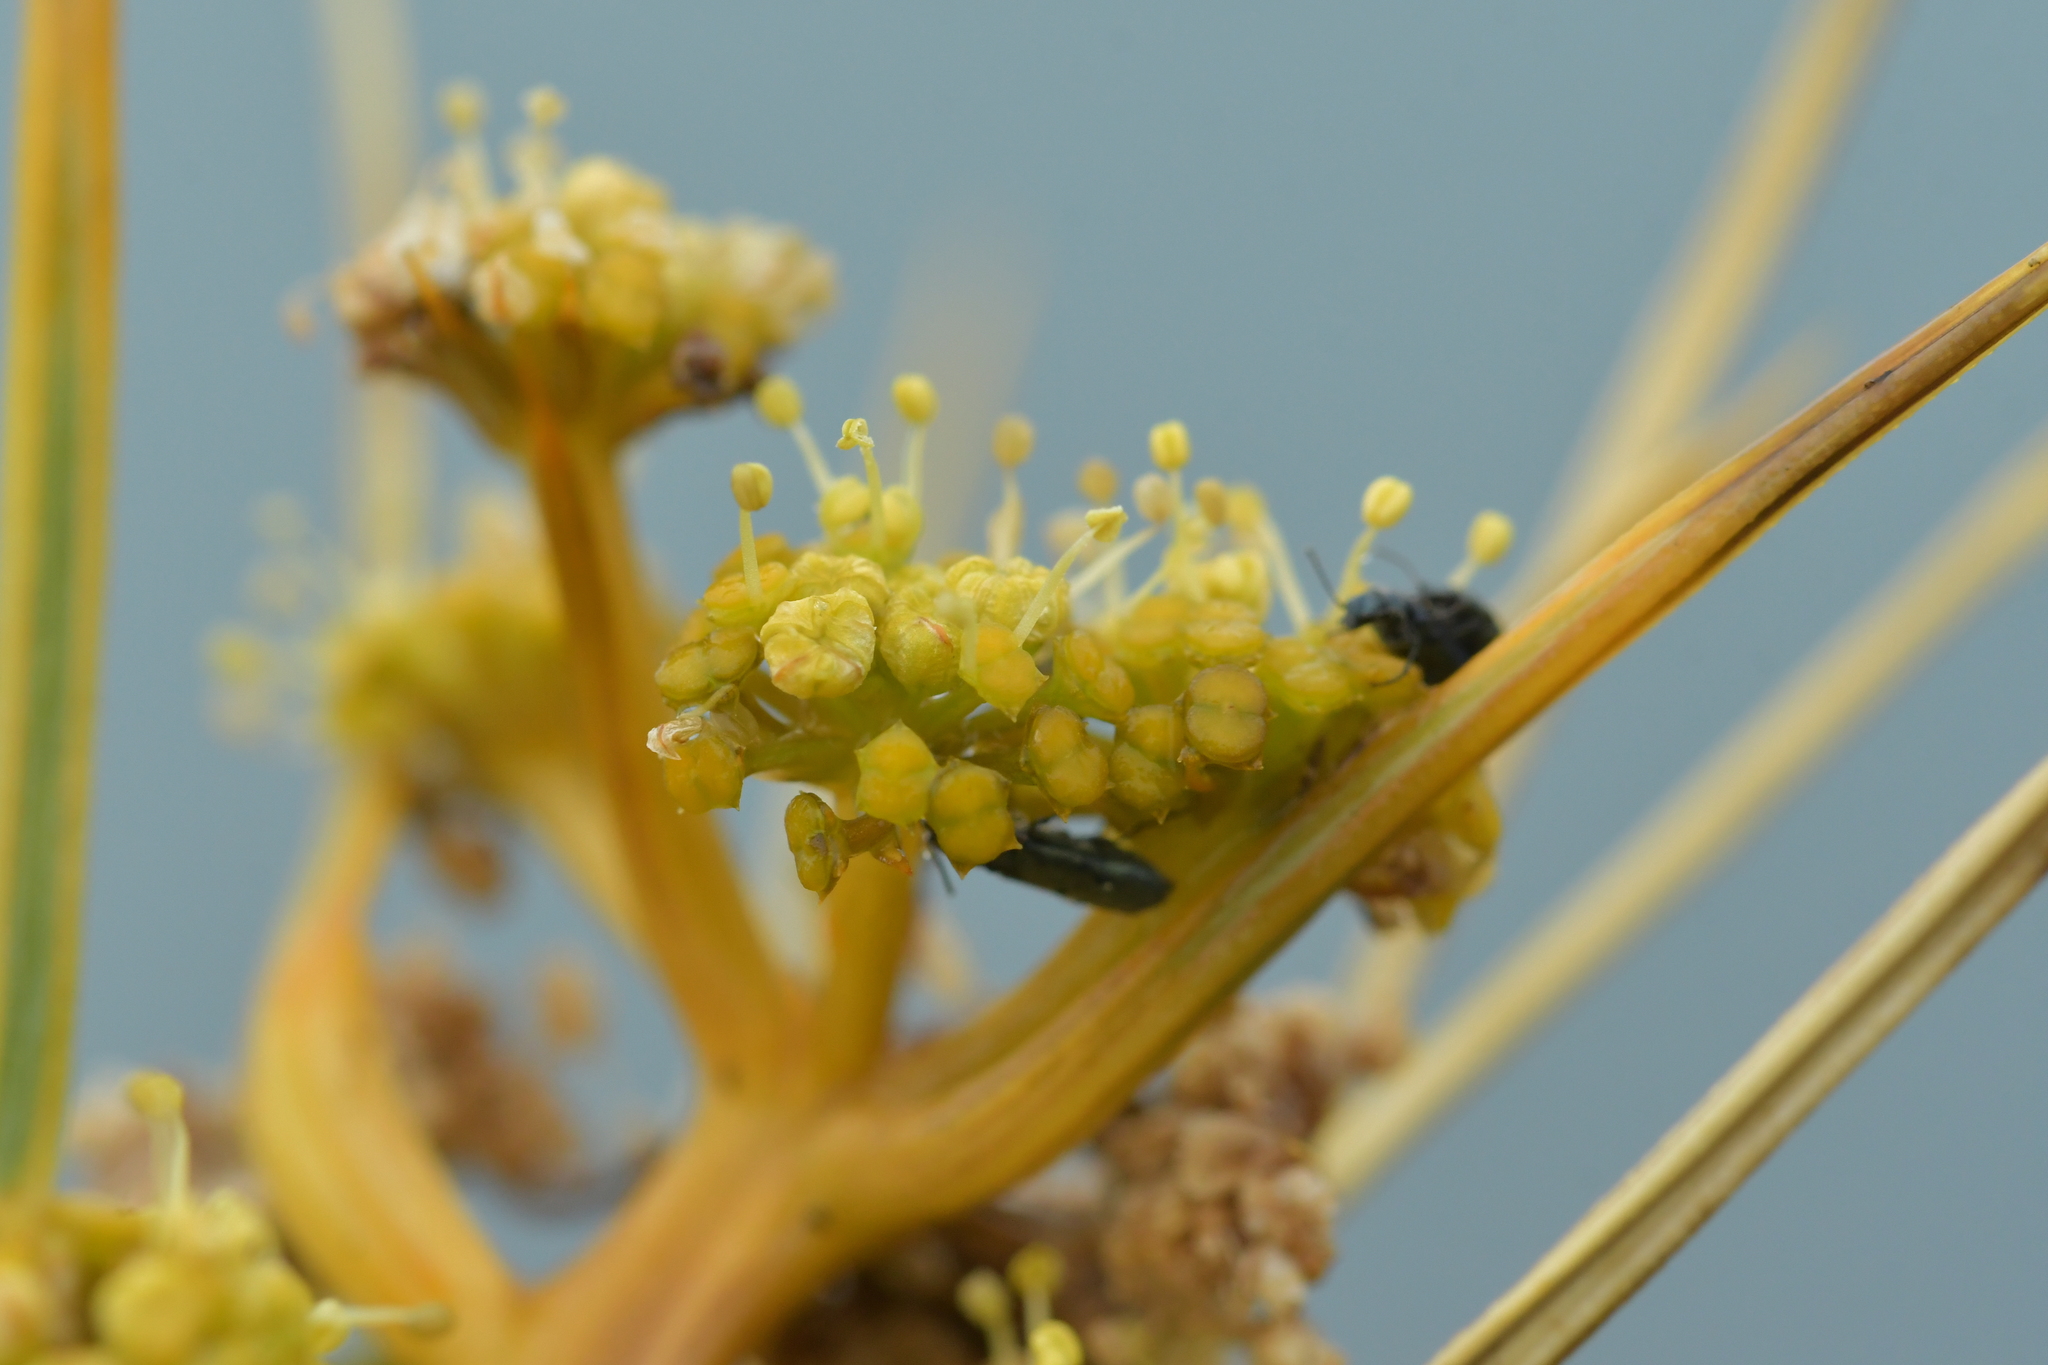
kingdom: Plantae
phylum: Tracheophyta
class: Magnoliopsida
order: Apiales
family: Apiaceae
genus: Aciphylla
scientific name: Aciphylla squarrosa
